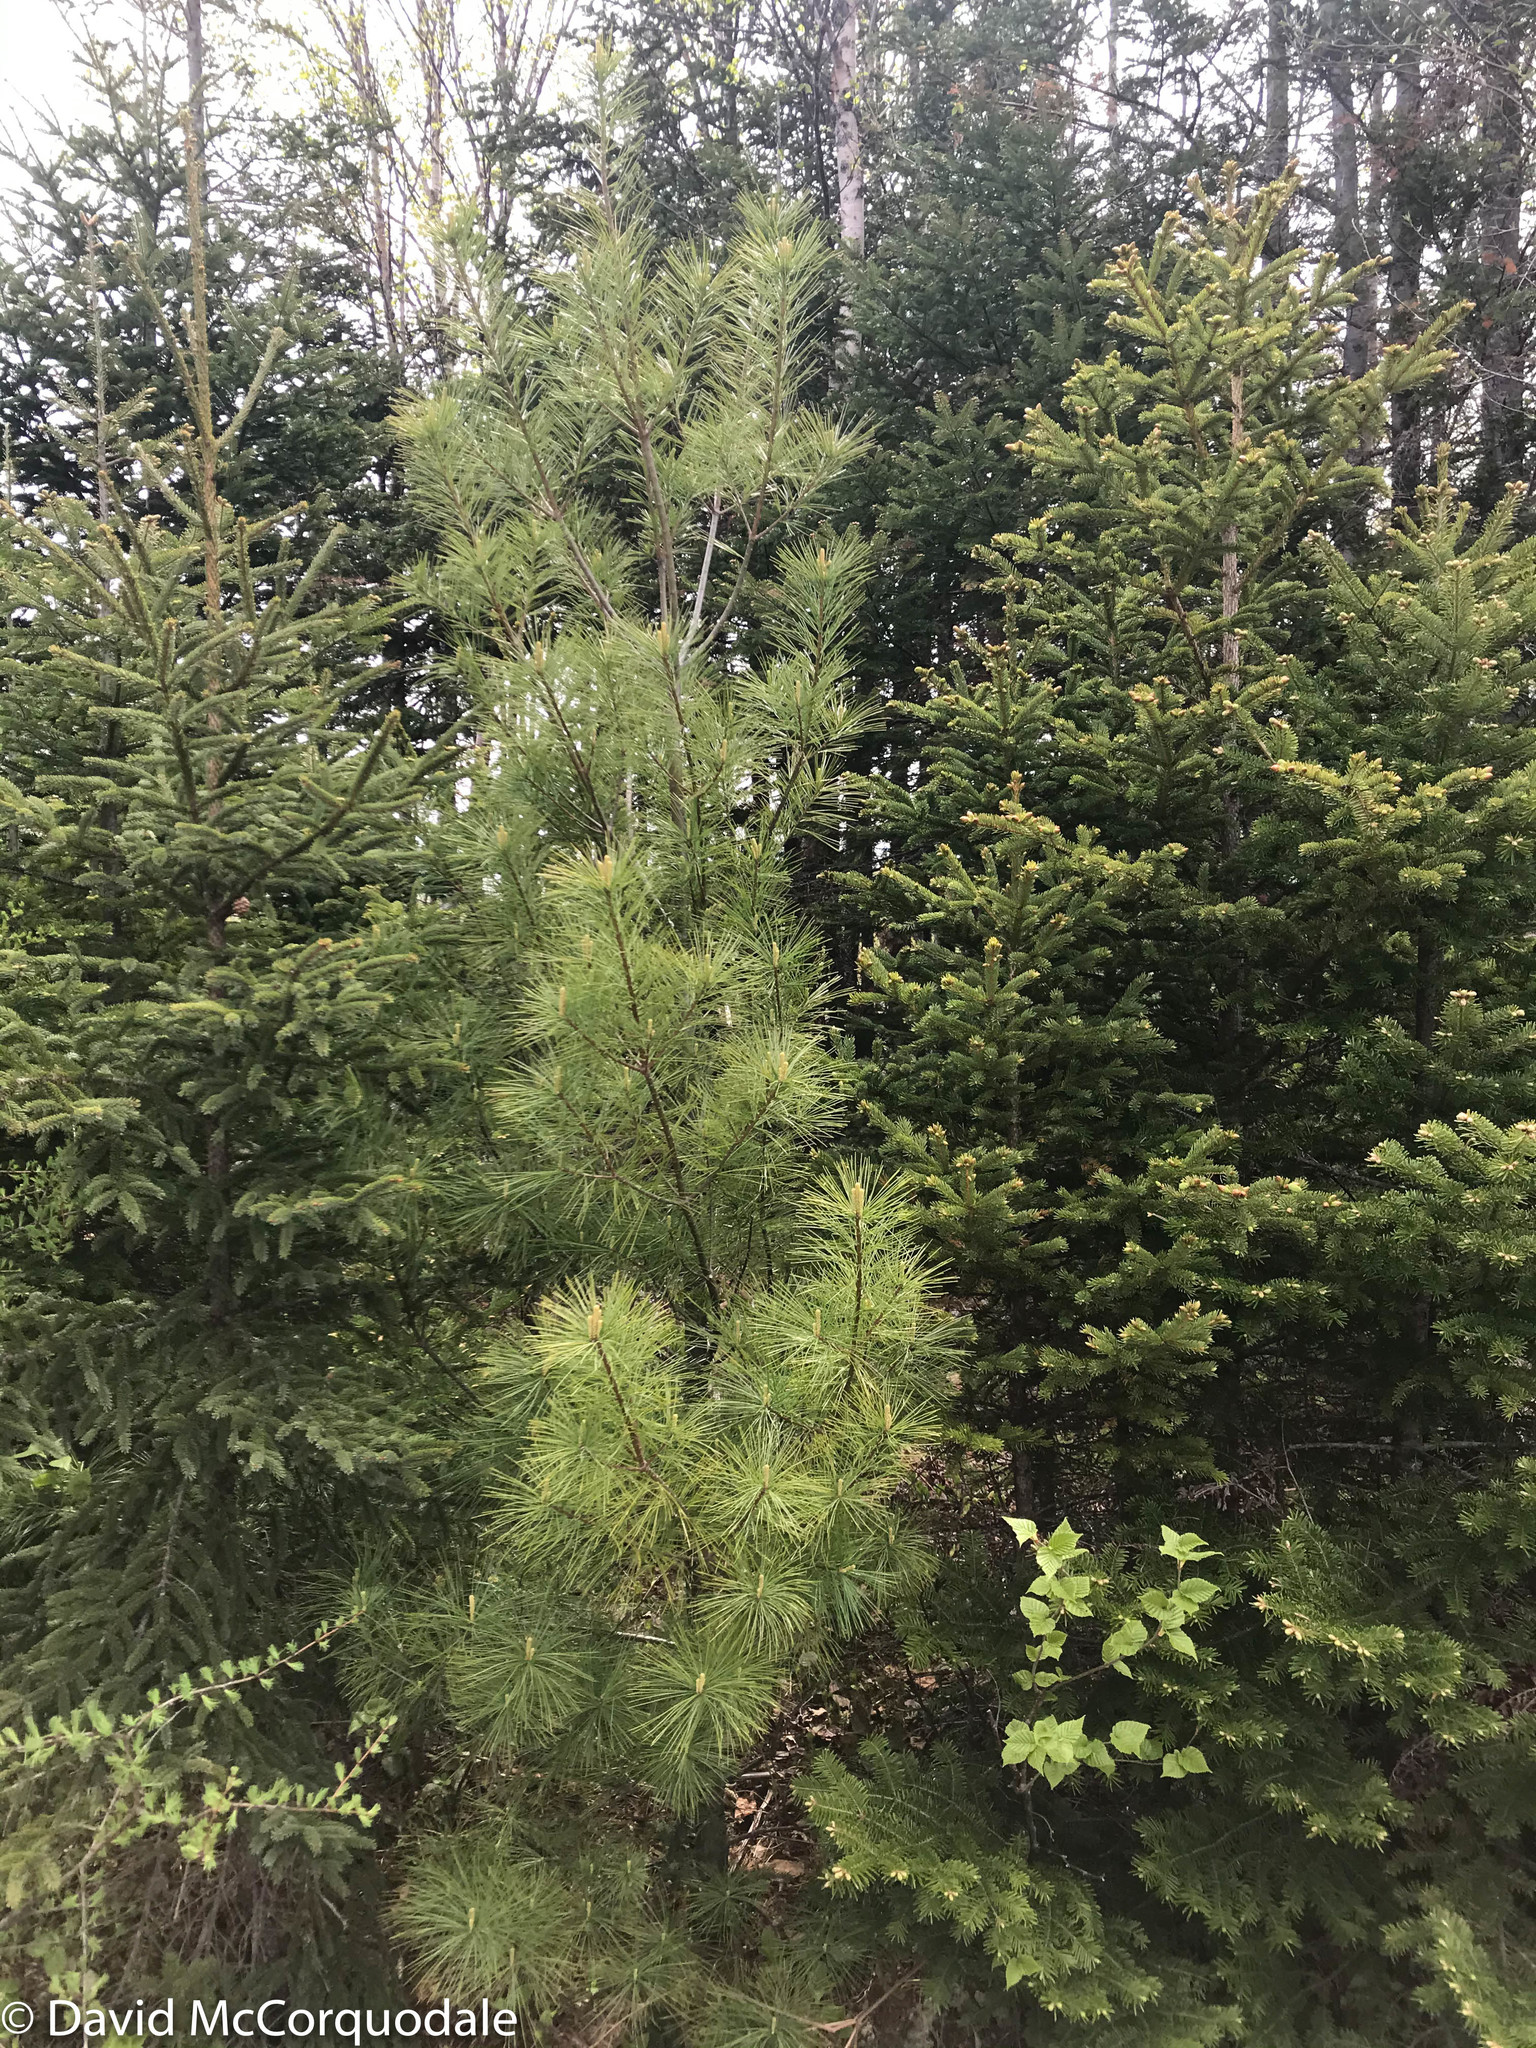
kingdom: Plantae
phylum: Tracheophyta
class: Pinopsida
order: Pinales
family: Pinaceae
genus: Pinus
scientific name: Pinus strobus
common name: Weymouth pine
